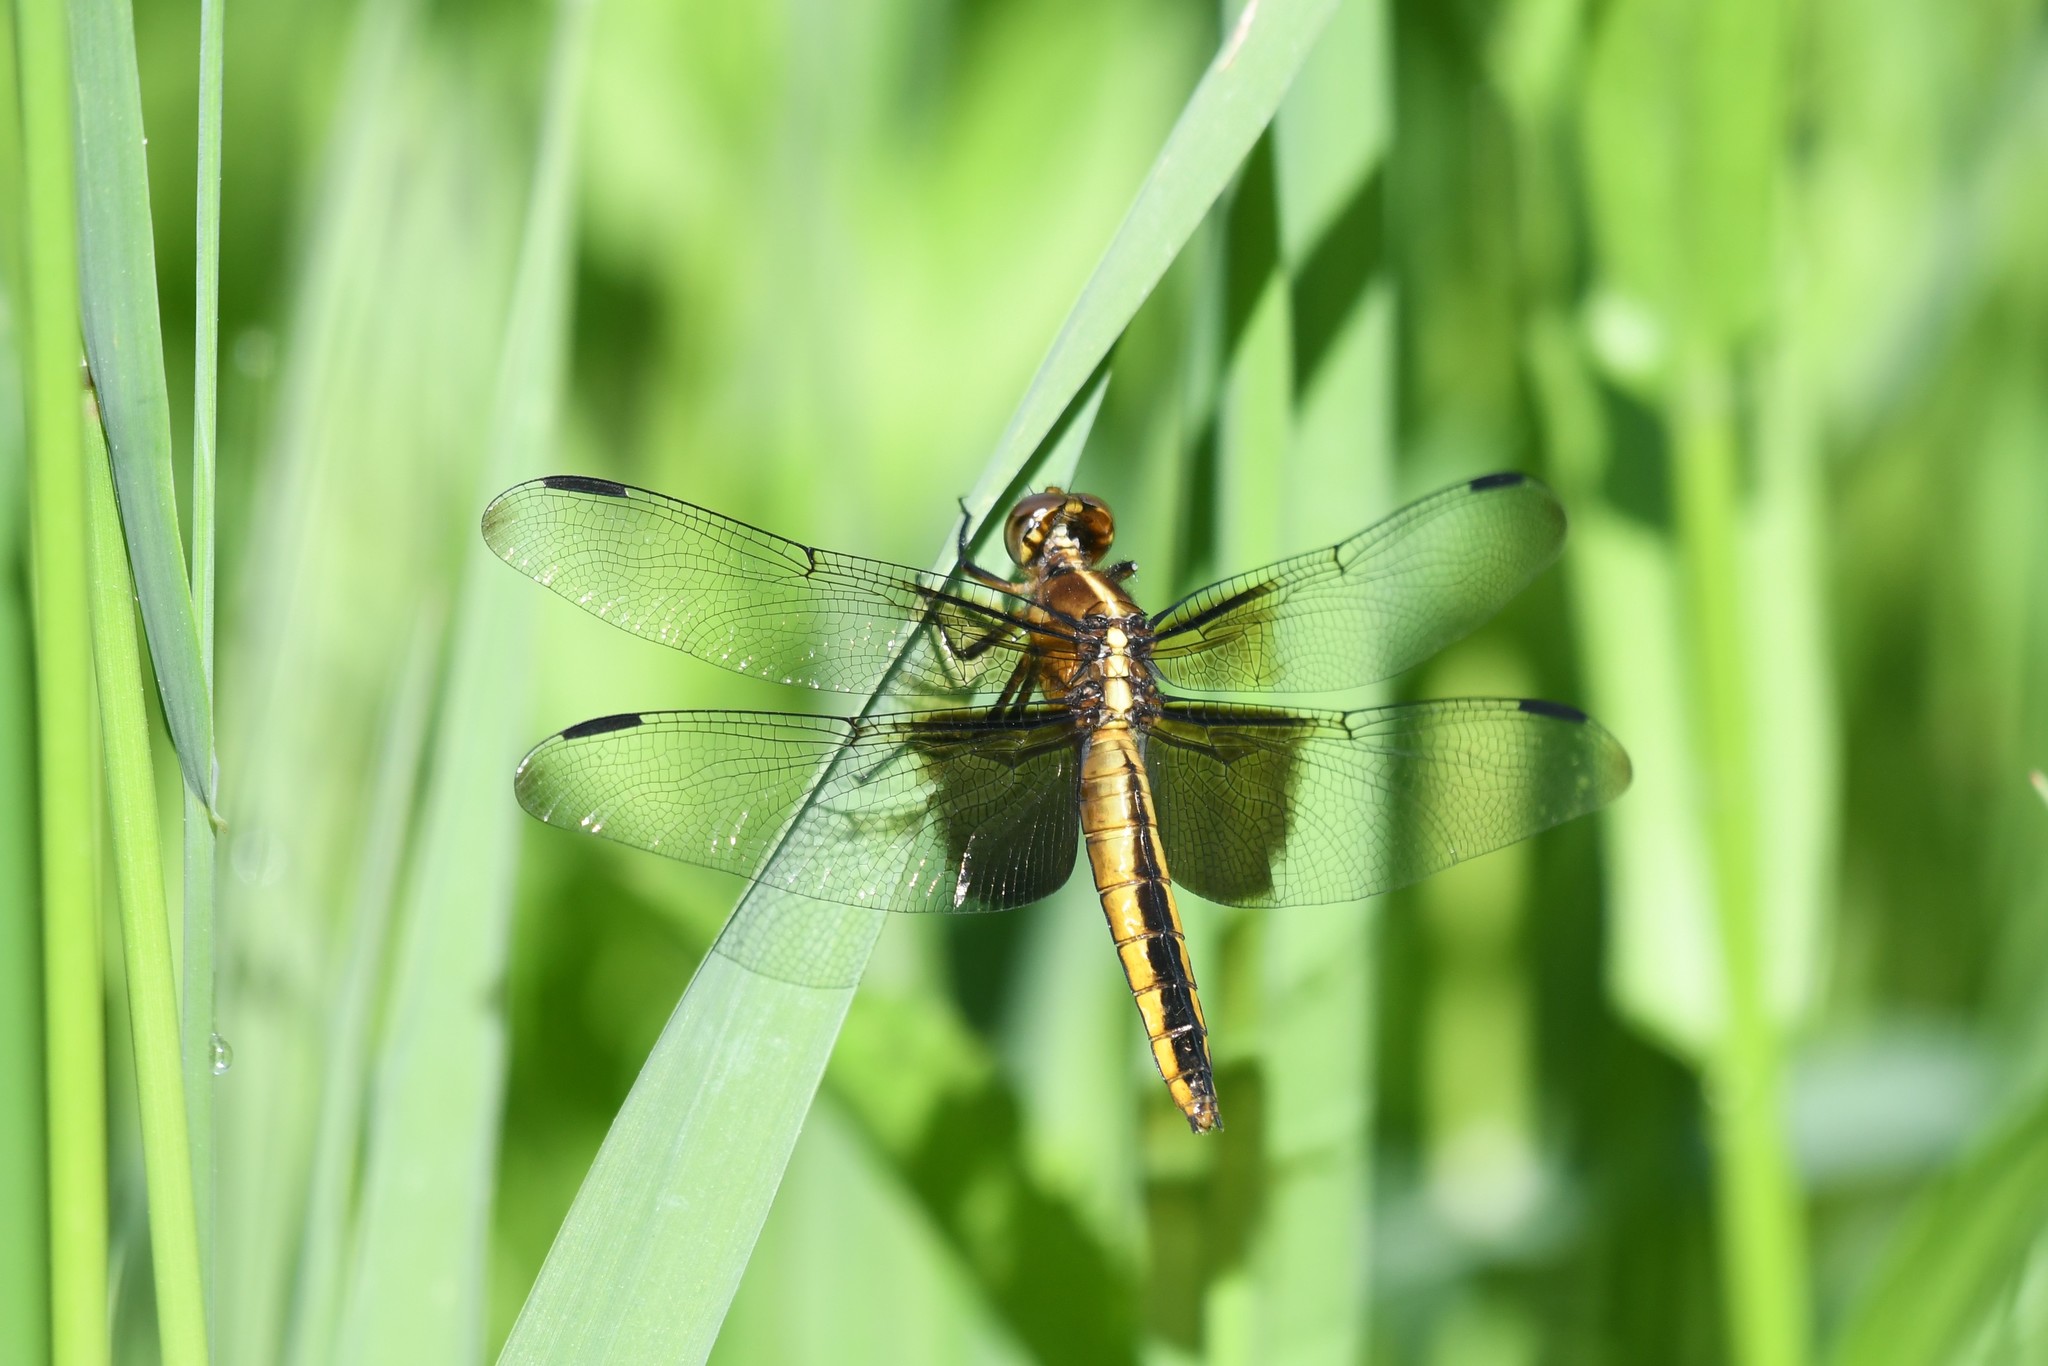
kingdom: Animalia
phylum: Arthropoda
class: Insecta
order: Odonata
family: Libellulidae
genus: Libellula
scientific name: Libellula luctuosa
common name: Widow skimmer
